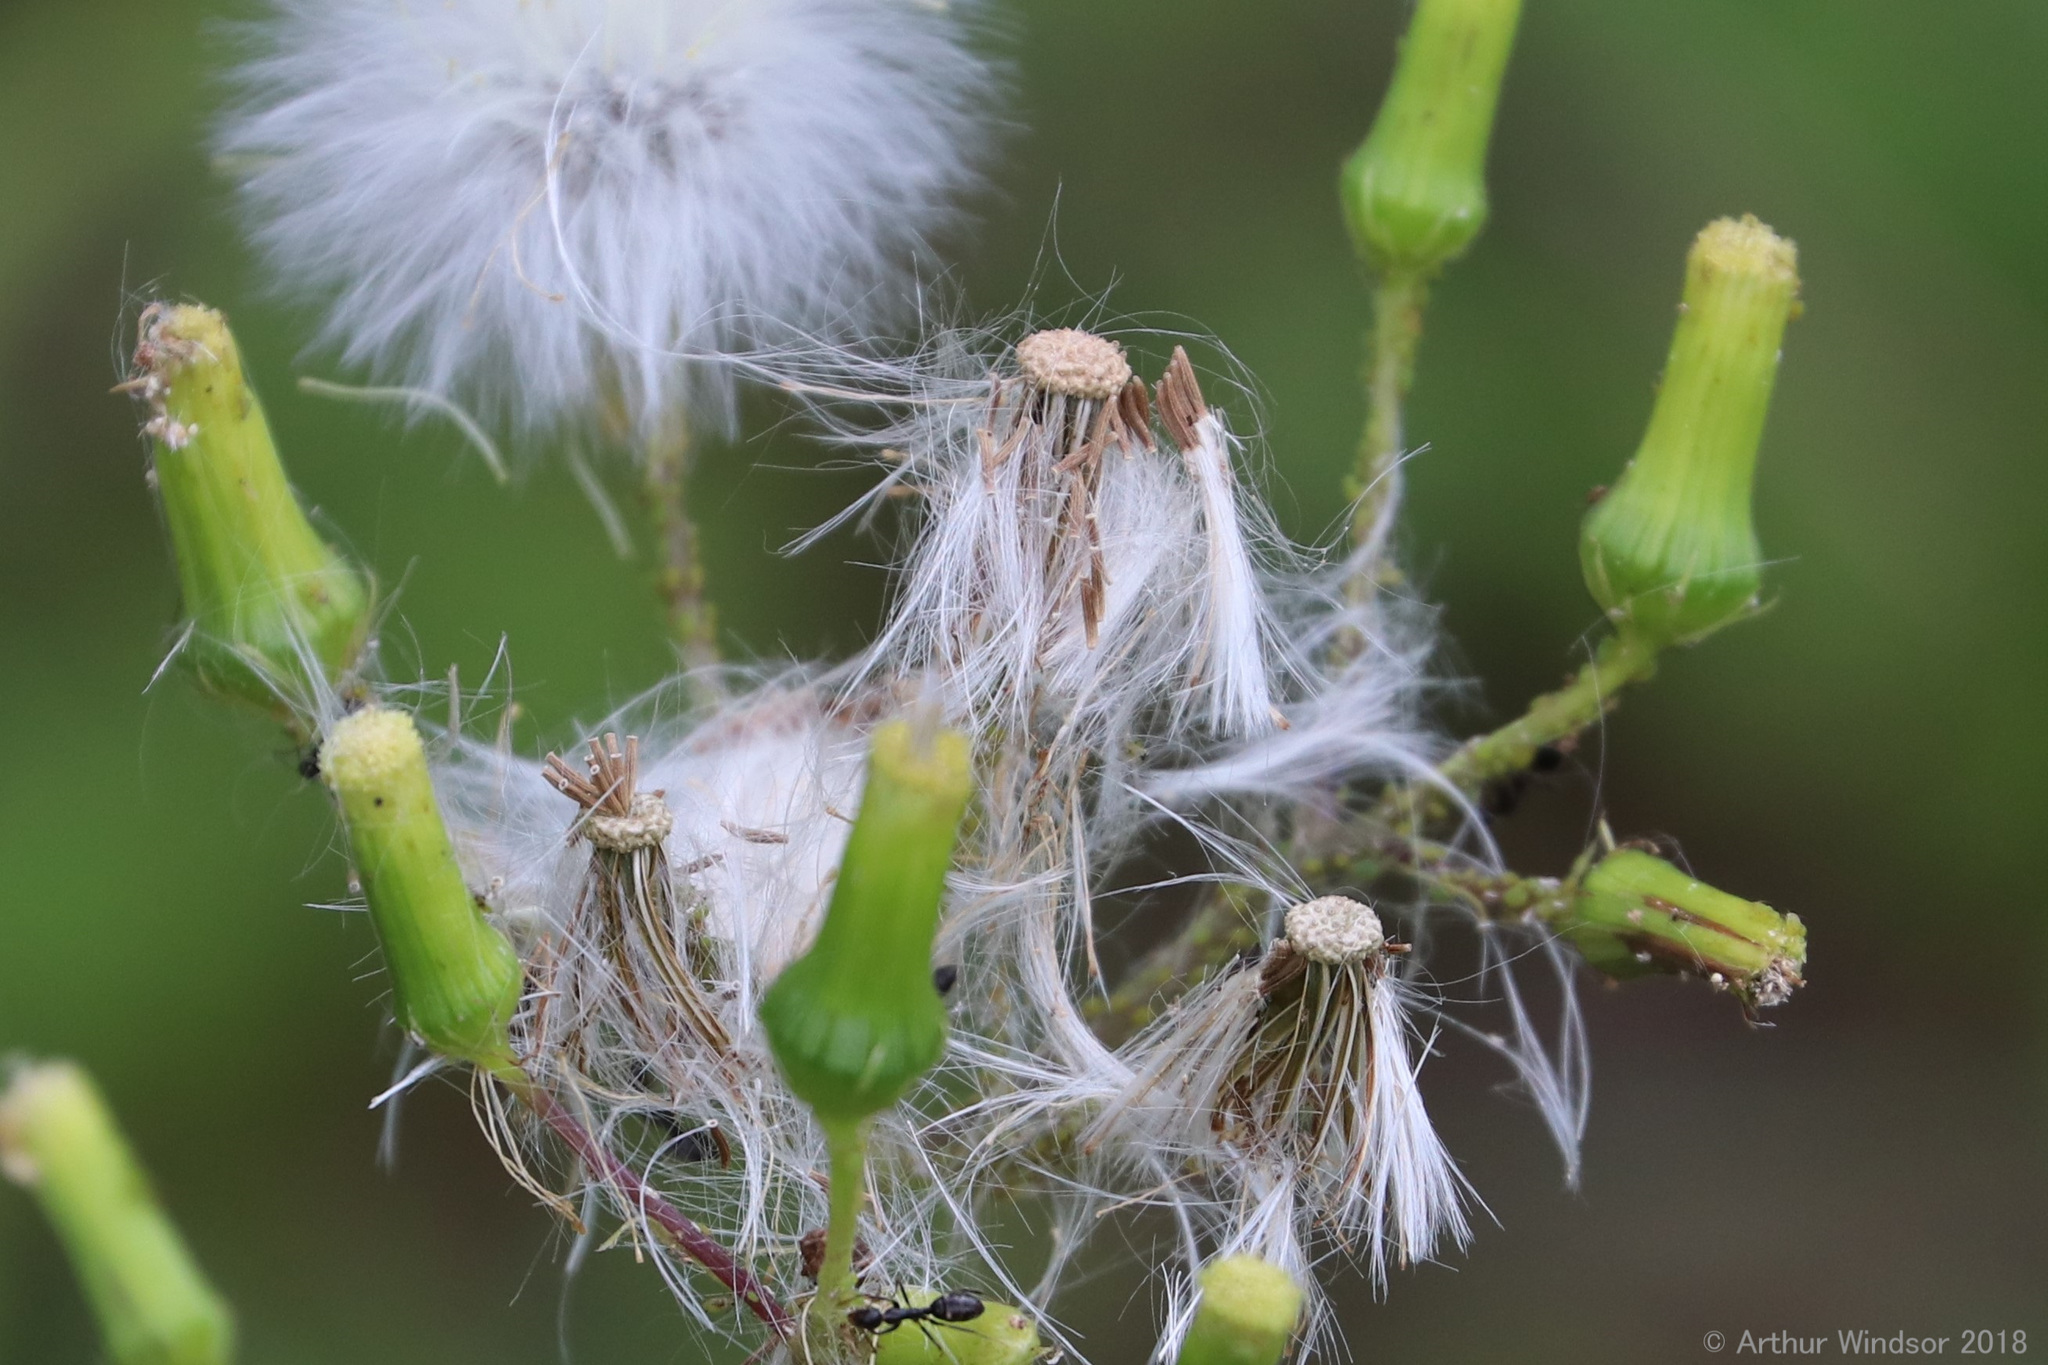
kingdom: Plantae
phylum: Tracheophyta
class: Magnoliopsida
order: Asterales
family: Asteraceae
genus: Erechtites
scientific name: Erechtites hieraciifolius
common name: American burnweed
